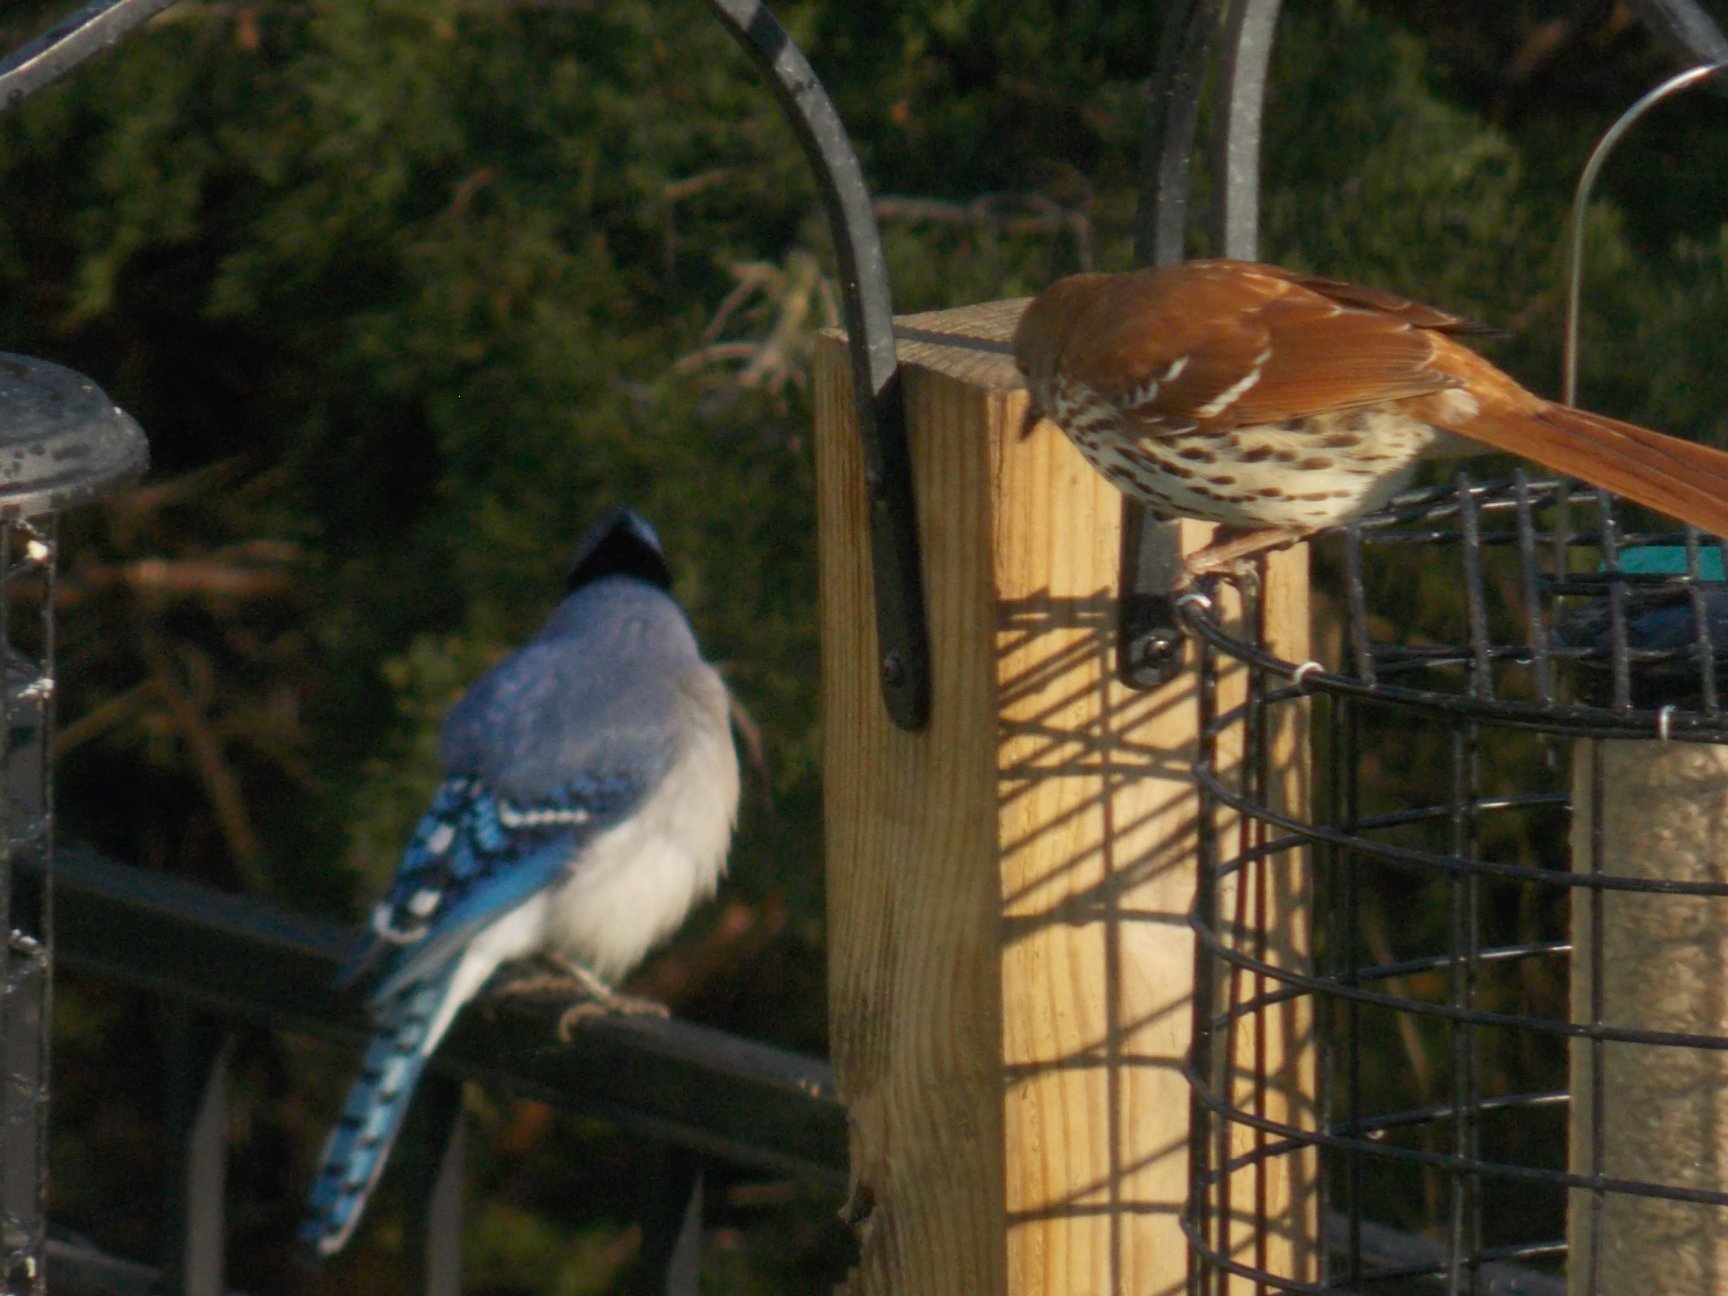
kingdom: Animalia
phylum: Chordata
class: Aves
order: Passeriformes
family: Corvidae
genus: Cyanocitta
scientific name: Cyanocitta cristata
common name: Blue jay
